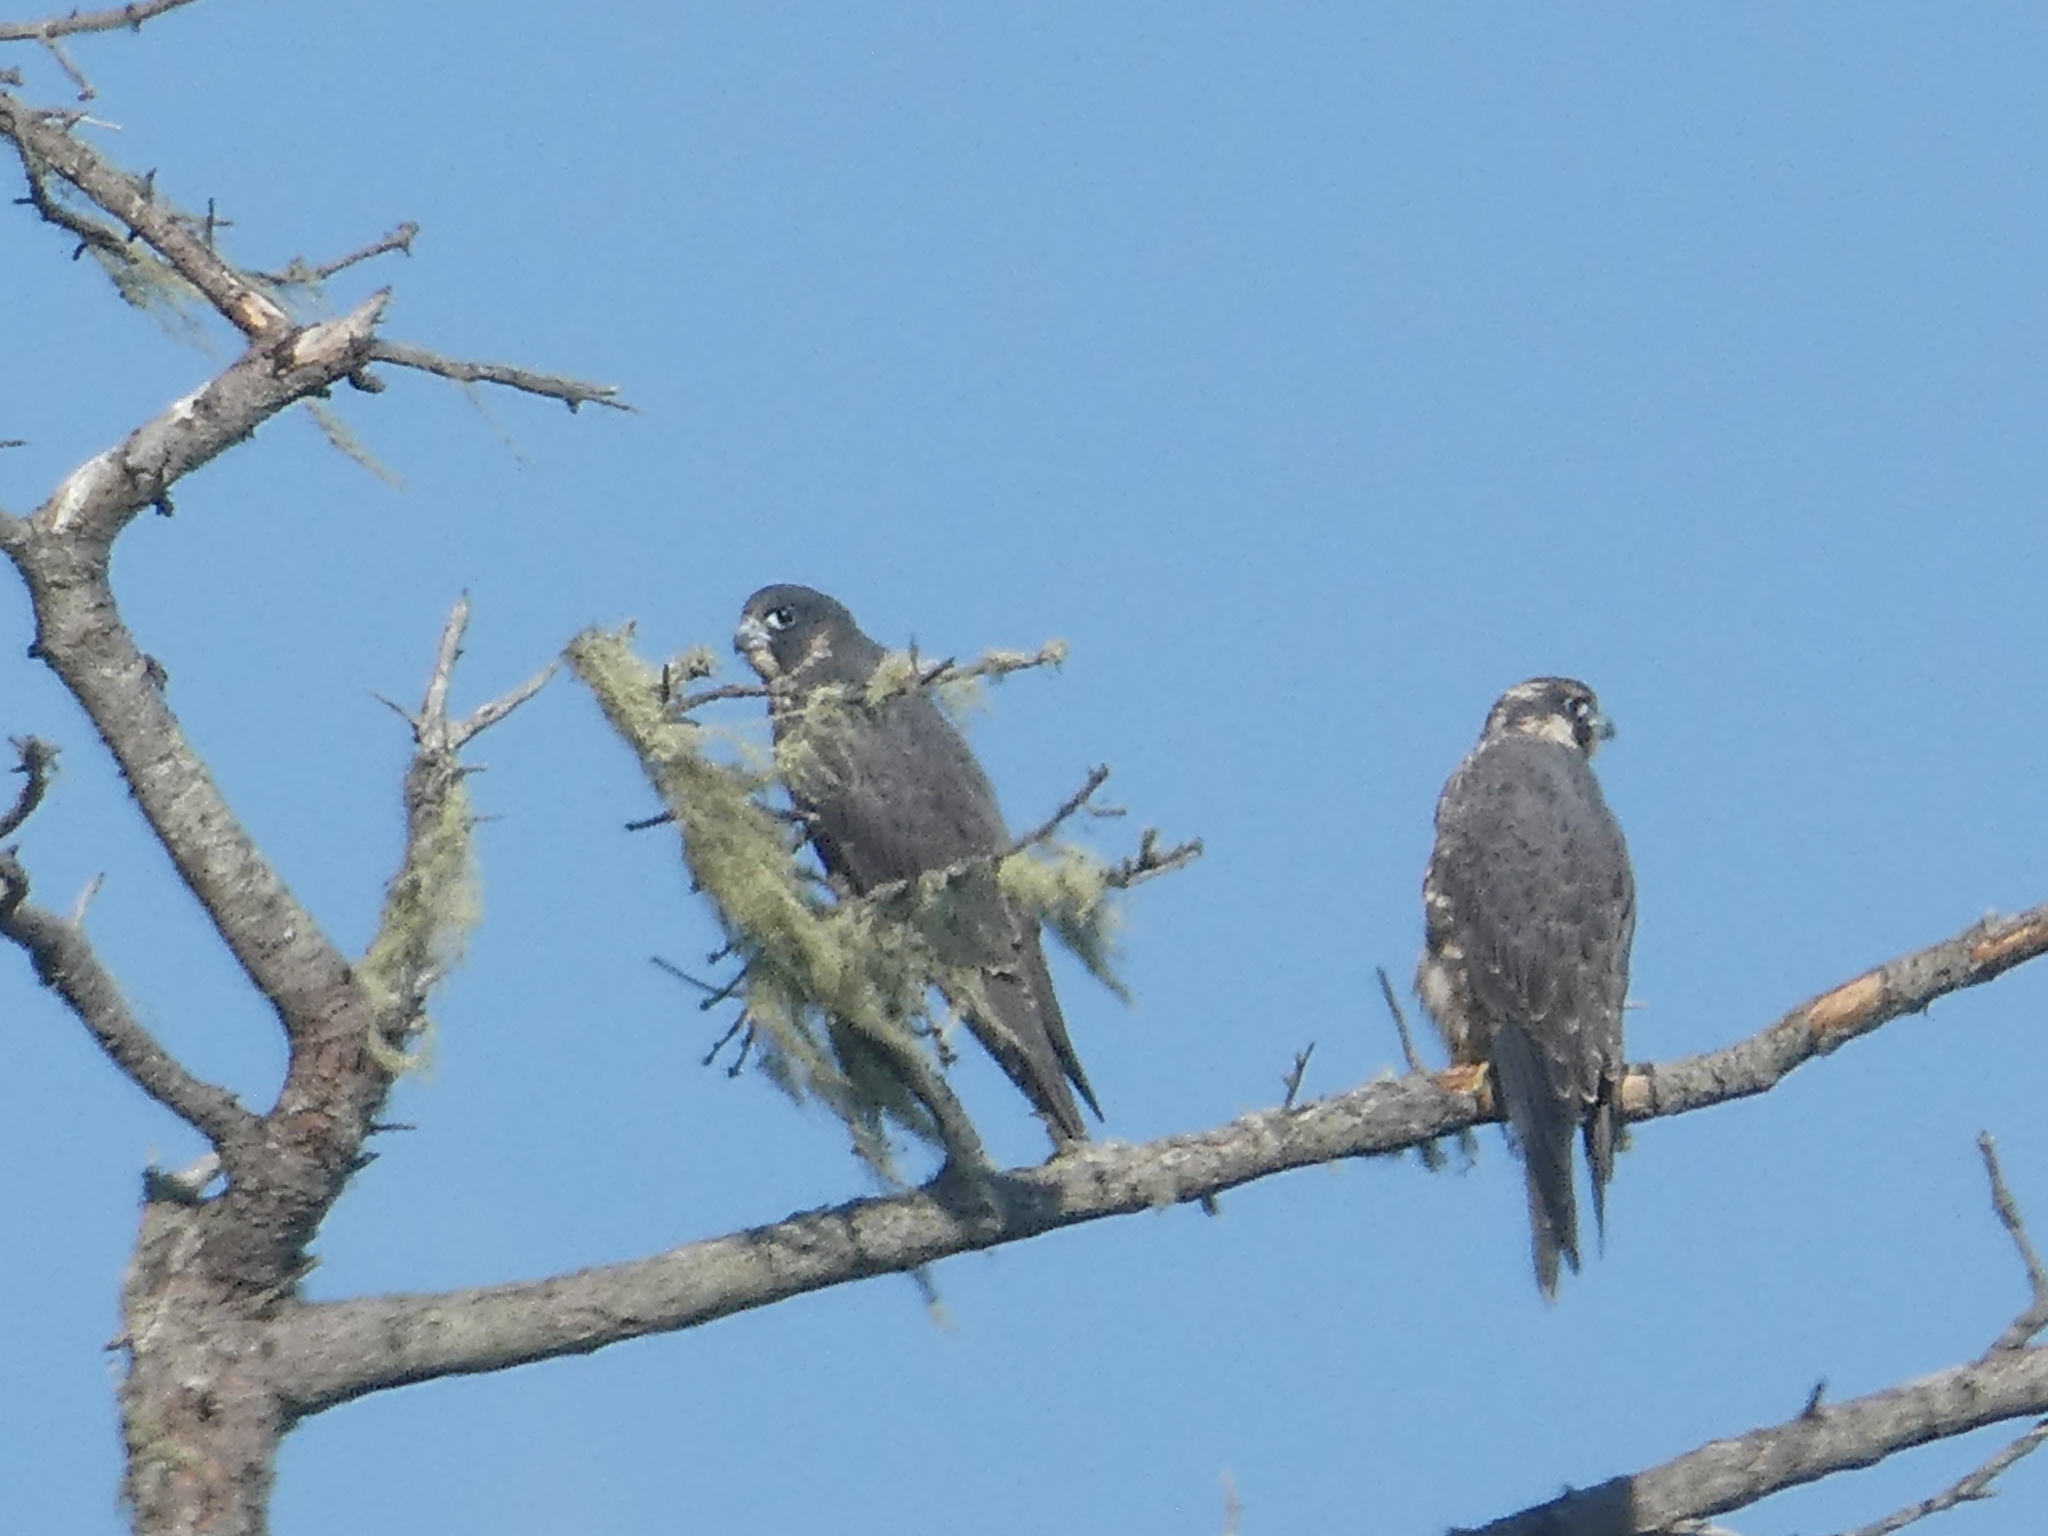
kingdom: Animalia
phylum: Chordata
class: Aves
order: Falconiformes
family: Falconidae
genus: Falco
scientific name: Falco peregrinus
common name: Peregrine falcon
